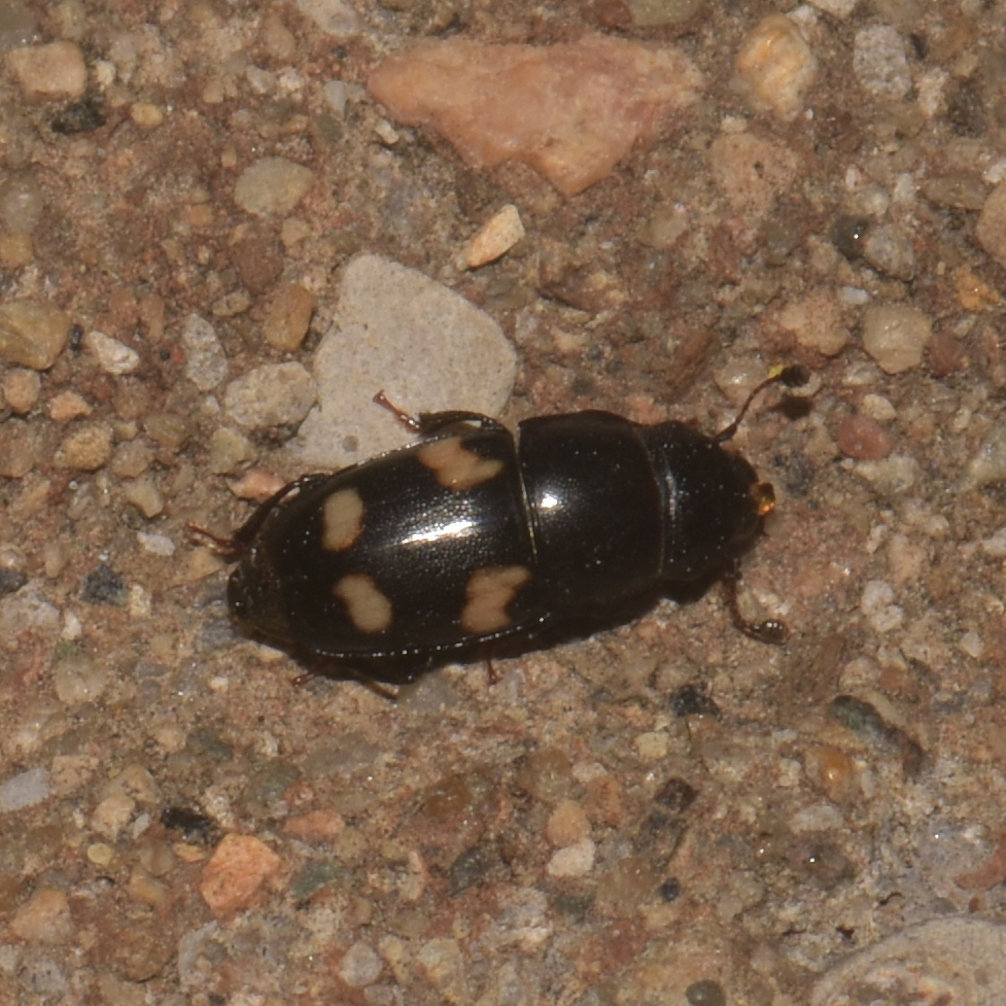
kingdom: Animalia
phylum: Arthropoda
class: Insecta
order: Coleoptera
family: Nitidulidae
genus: Glischrochilus
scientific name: Glischrochilus quadrisignatus
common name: Picnic beetle
